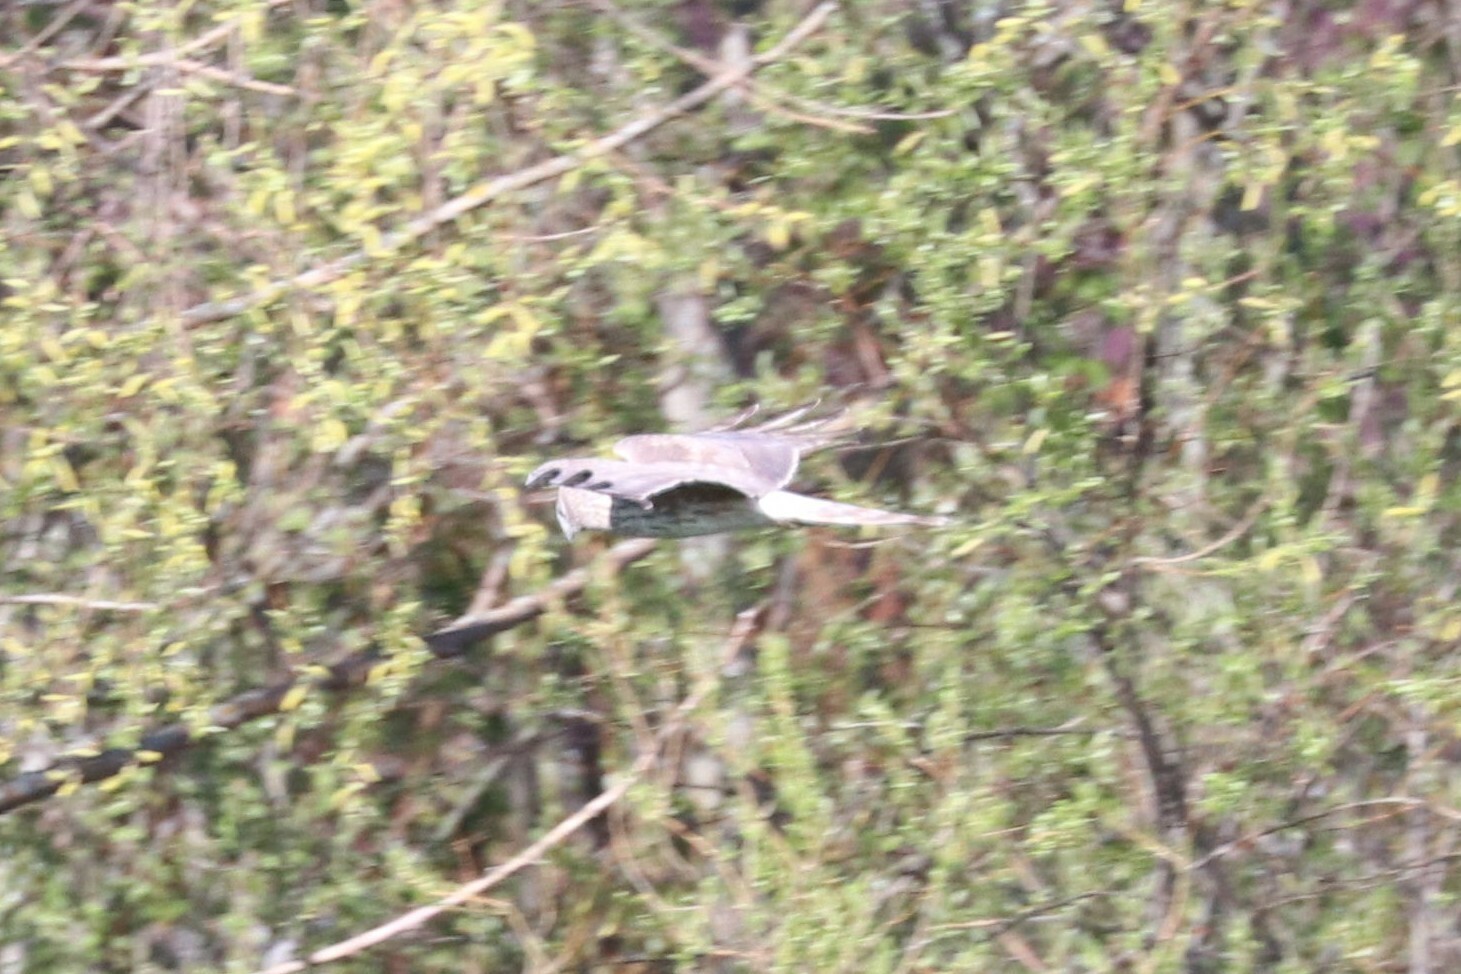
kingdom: Animalia
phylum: Chordata
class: Aves
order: Accipitriformes
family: Accipitridae
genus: Circus
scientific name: Circus cyaneus
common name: Hen harrier
